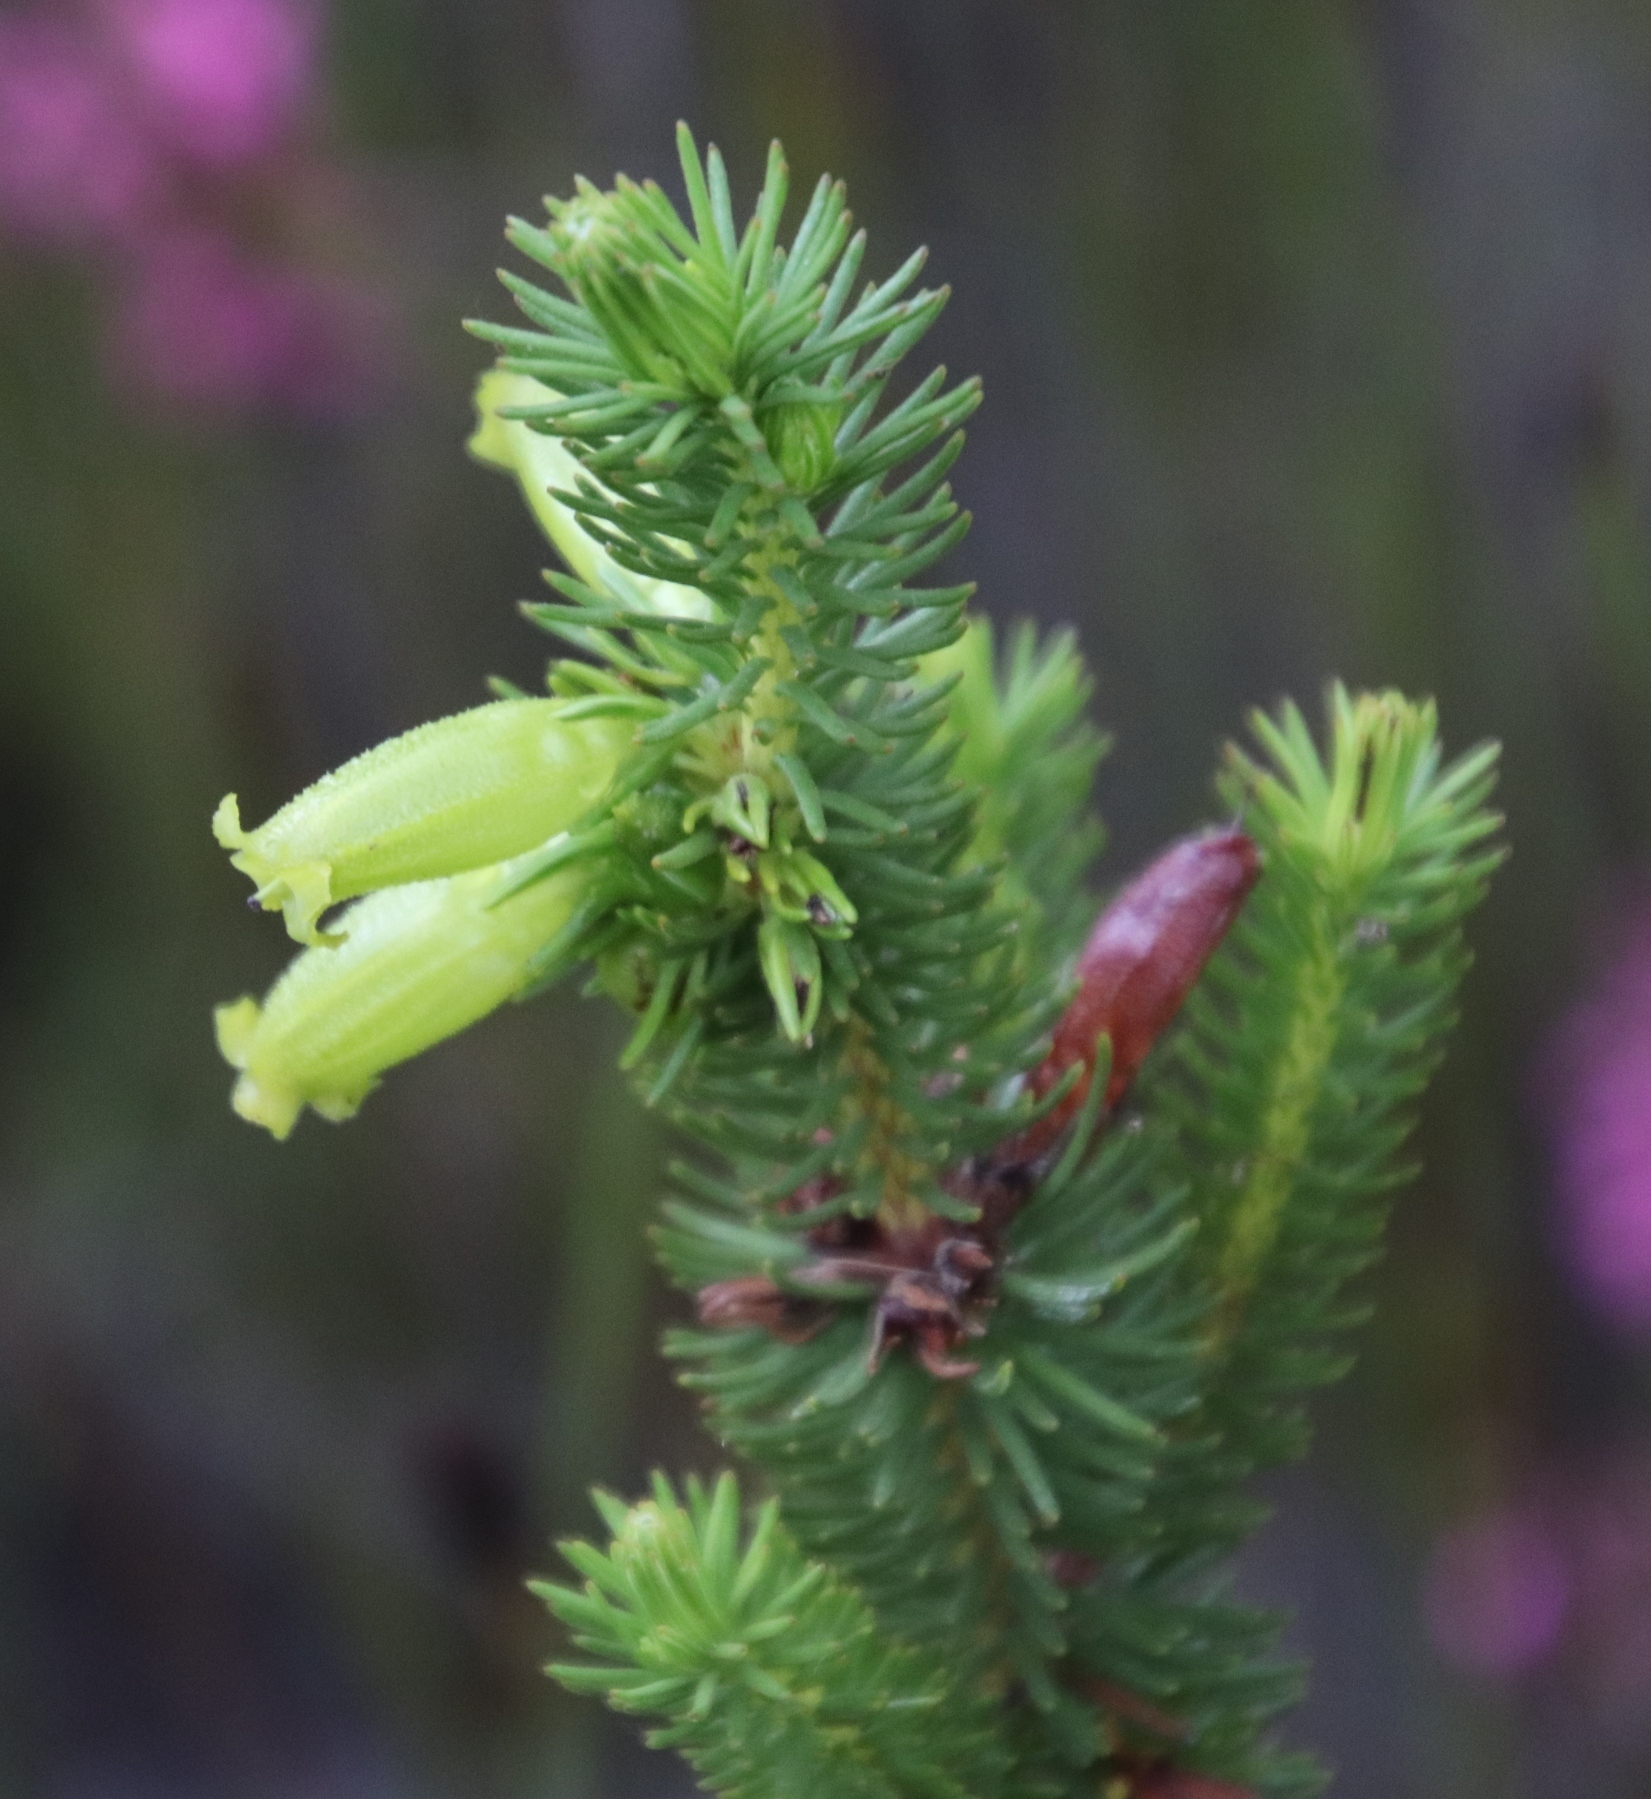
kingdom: Plantae
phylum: Tracheophyta
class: Magnoliopsida
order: Ericales
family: Ericaceae
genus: Erica
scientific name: Erica viscaria
